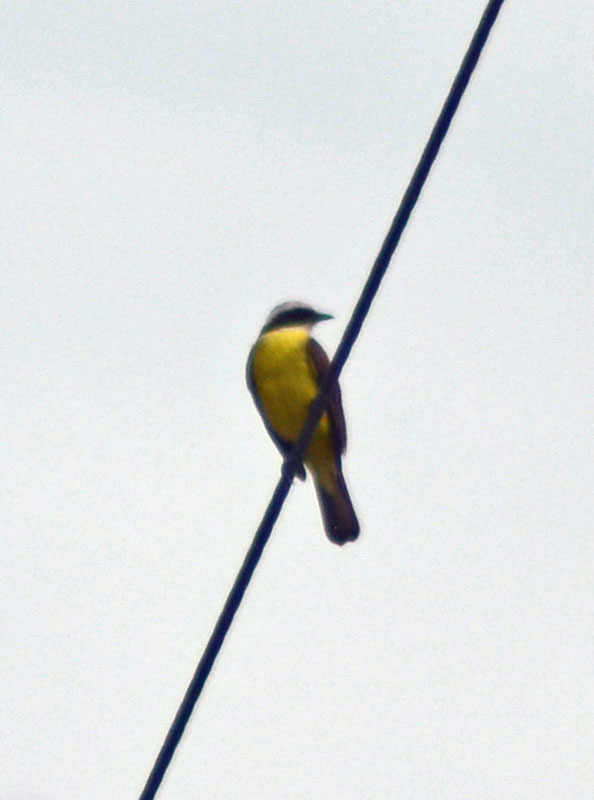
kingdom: Animalia
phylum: Chordata
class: Aves
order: Passeriformes
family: Tyrannidae
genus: Myiozetetes
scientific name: Myiozetetes similis
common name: Social flycatcher
